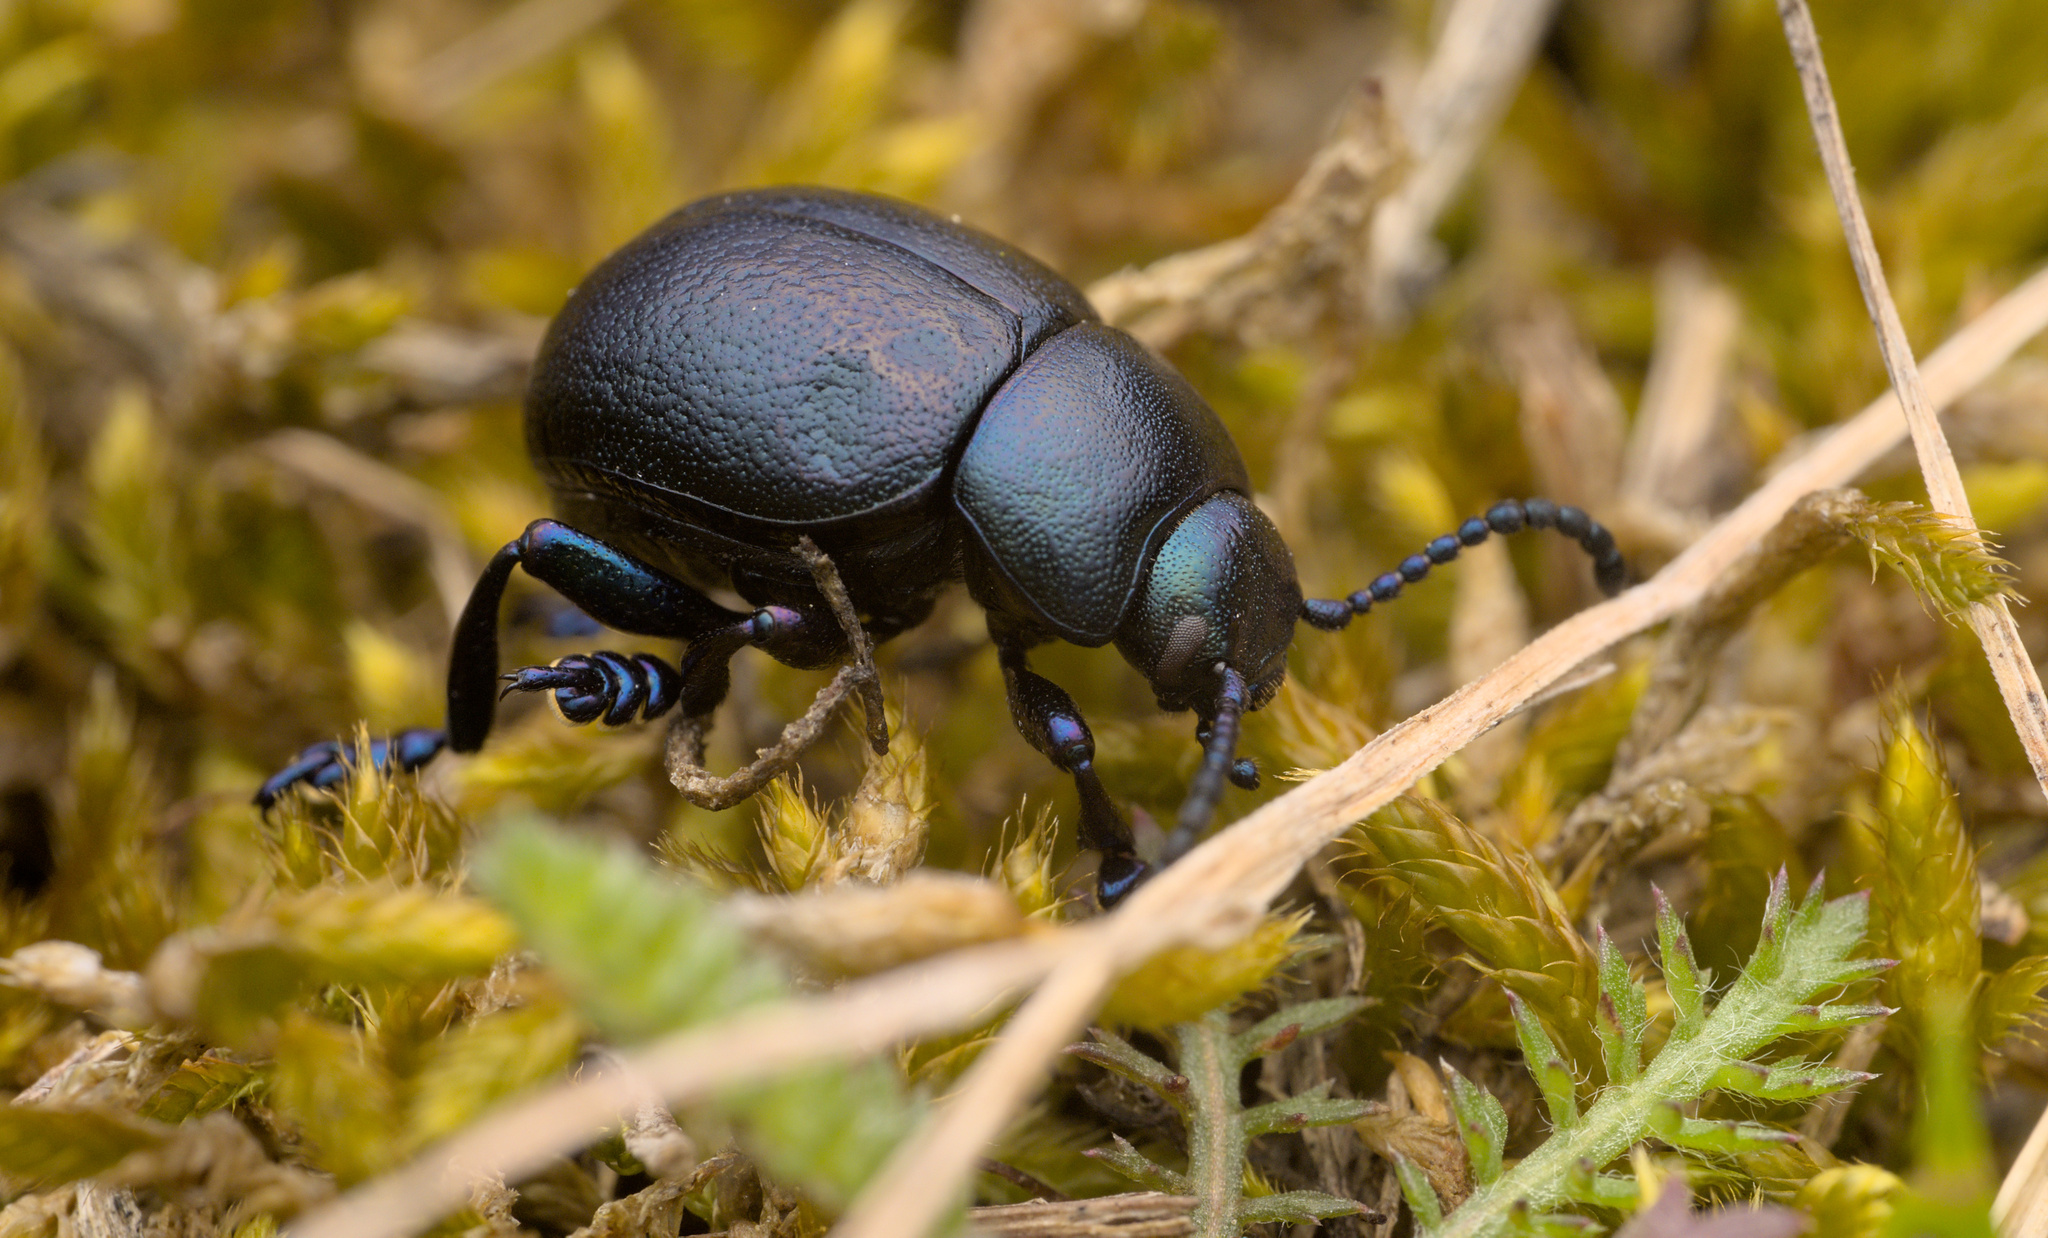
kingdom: Animalia
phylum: Arthropoda
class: Insecta
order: Coleoptera
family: Chrysomelidae
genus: Timarcha
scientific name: Timarcha goettingensis
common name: Small bloody-nosed beetle
